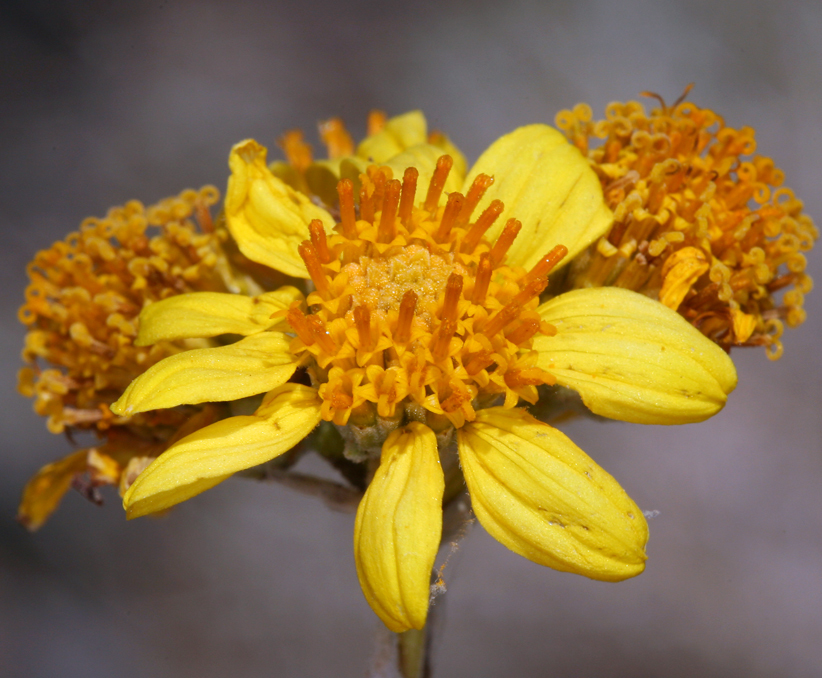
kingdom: Plantae
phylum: Tracheophyta
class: Magnoliopsida
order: Asterales
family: Asteraceae
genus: Bahiopsis
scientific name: Bahiopsis reticulata
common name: Death valley goldeneye
